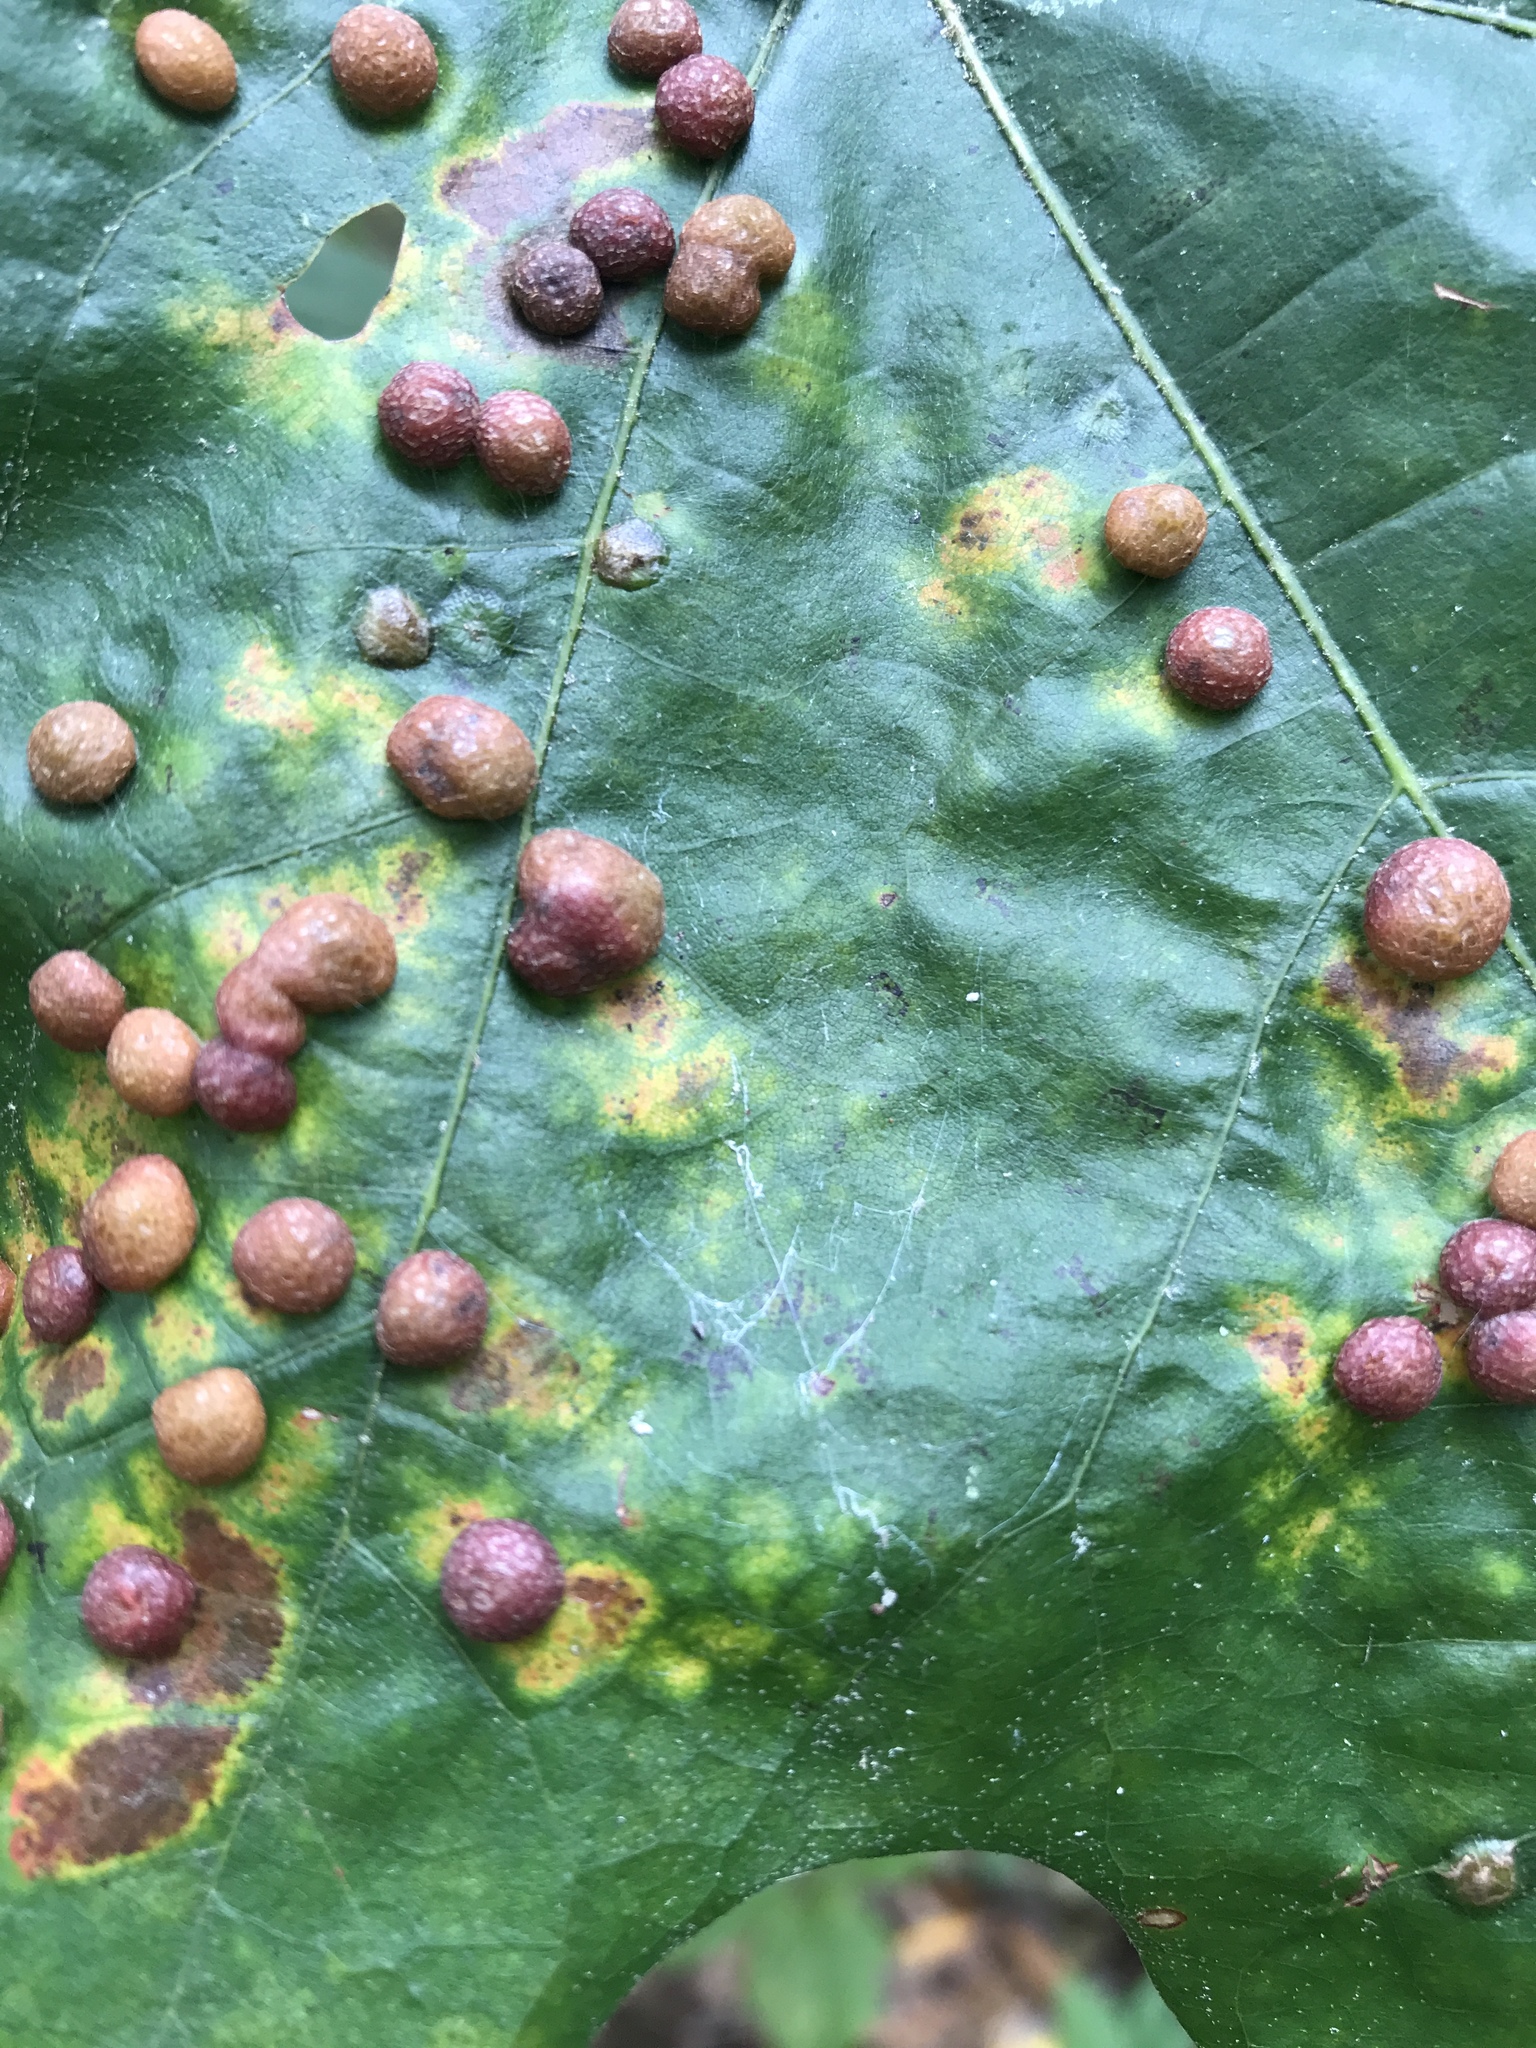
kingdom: Animalia
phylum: Arthropoda
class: Insecta
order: Diptera
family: Cecidomyiidae
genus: Polystepha
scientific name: Polystepha pilulae
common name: Oak leaf gall midge
